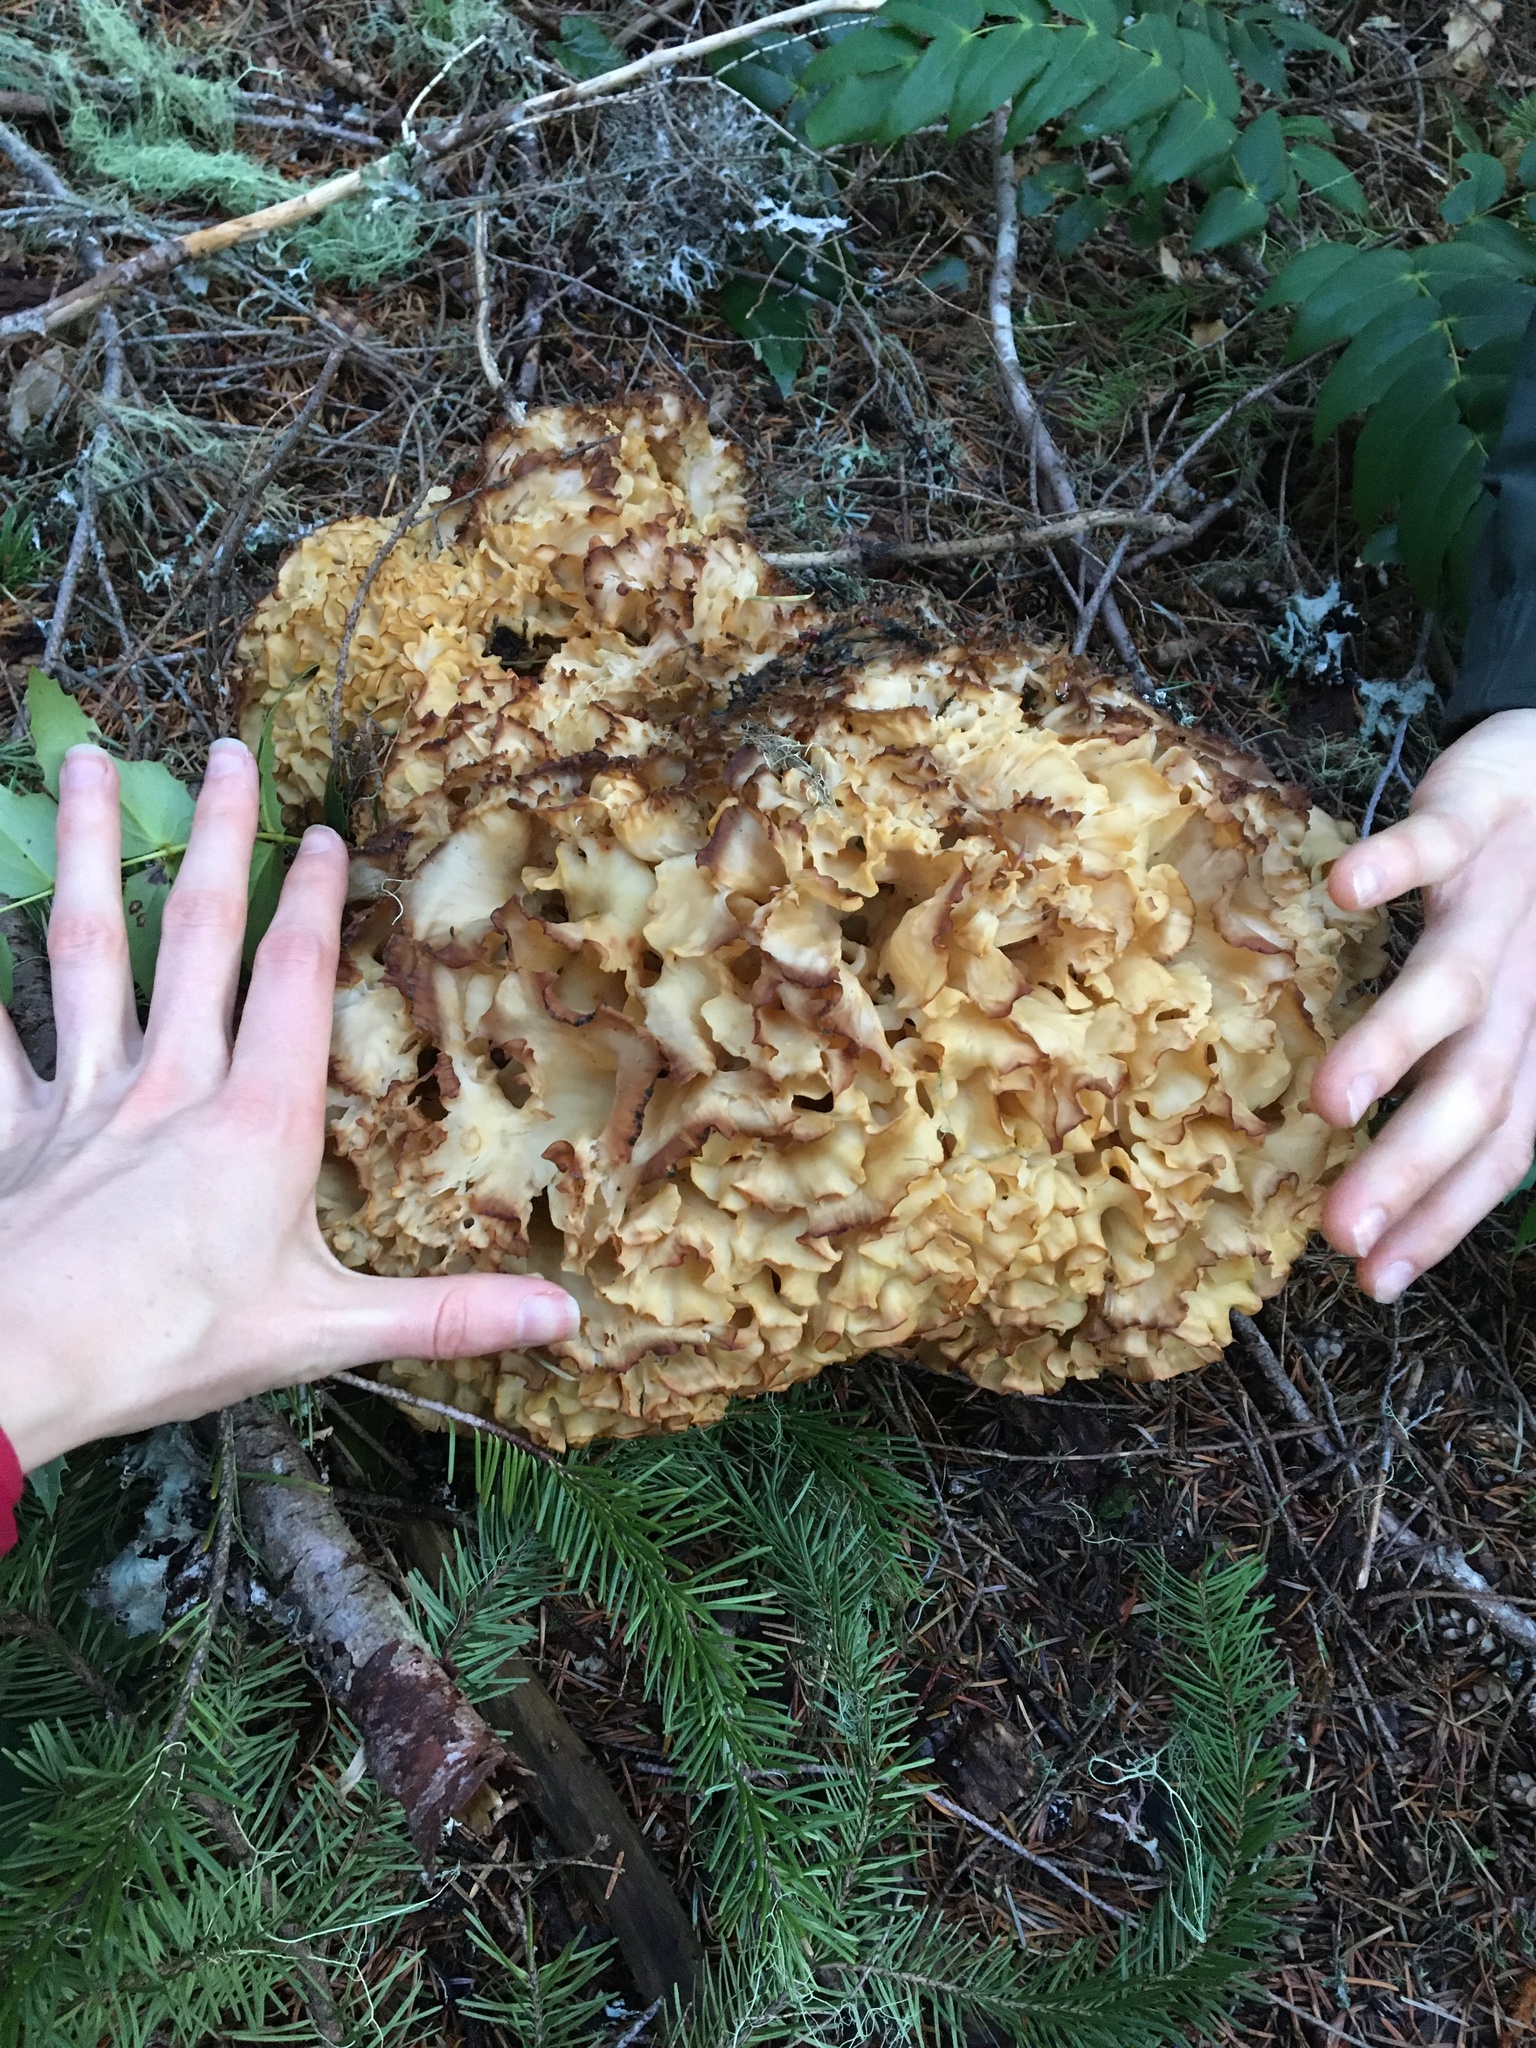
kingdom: Fungi
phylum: Basidiomycota
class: Agaricomycetes
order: Polyporales
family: Sparassidaceae
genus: Sparassis
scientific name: Sparassis radicata
